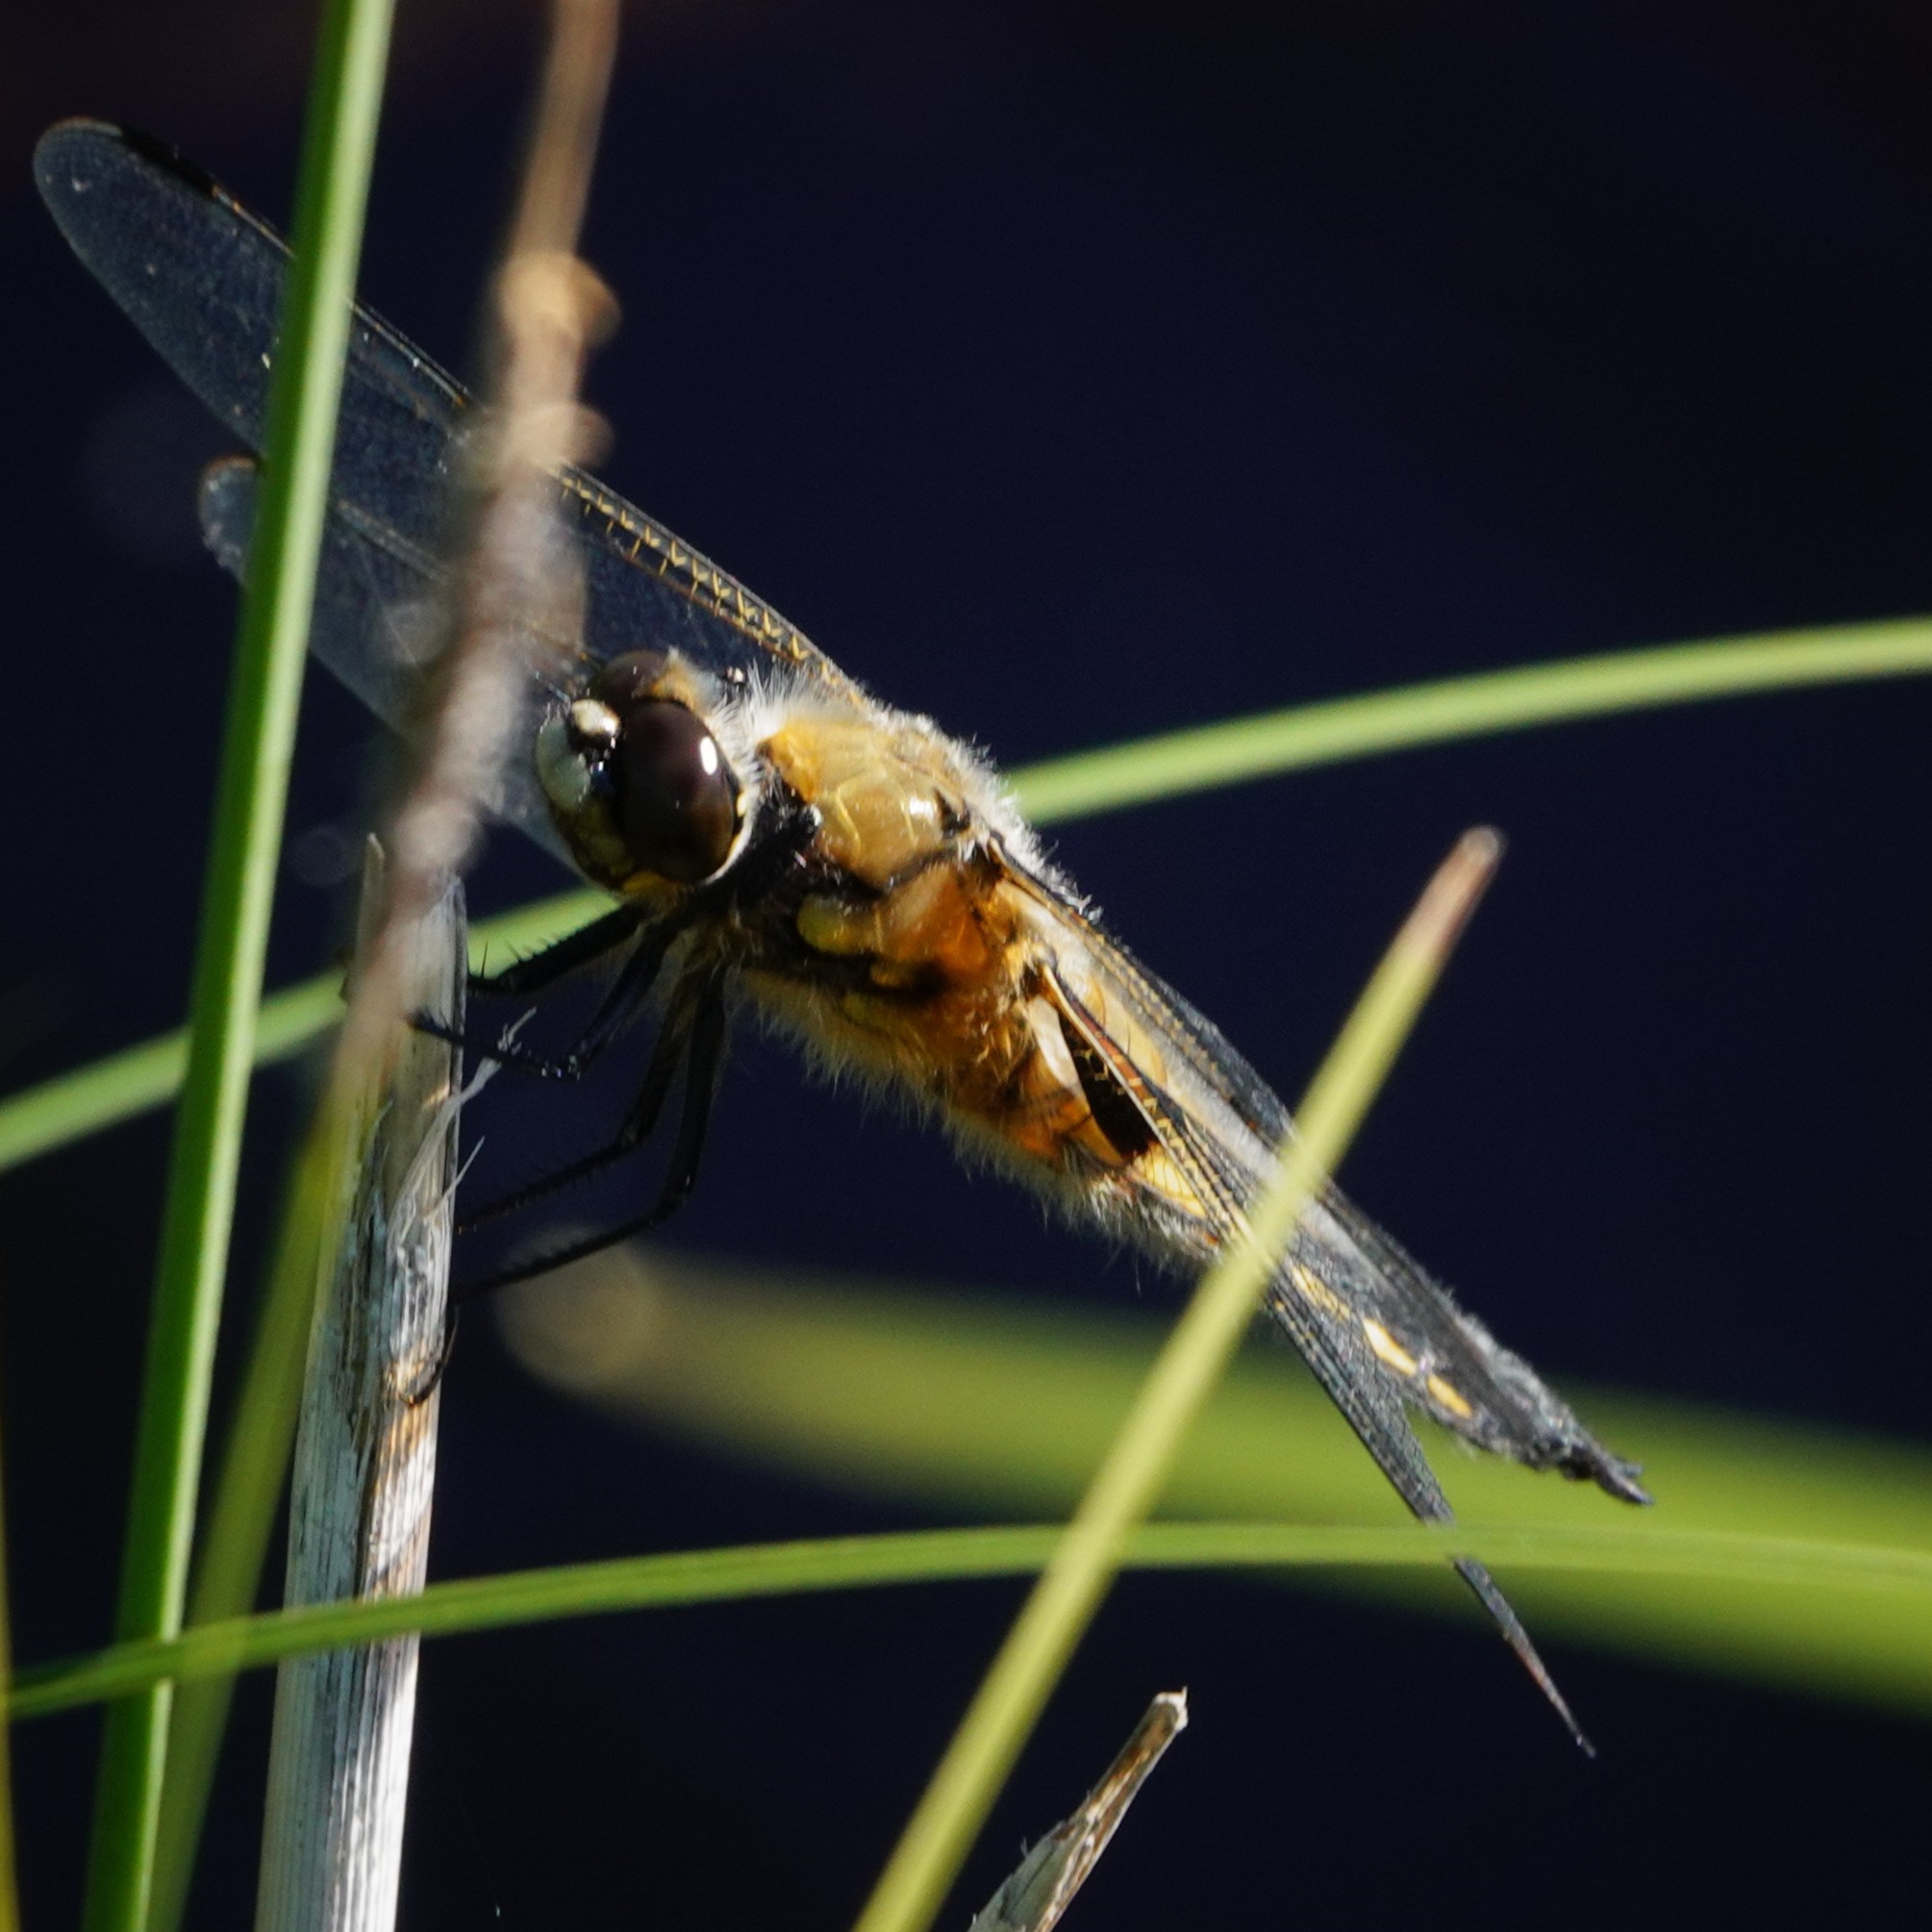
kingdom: Animalia
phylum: Arthropoda
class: Insecta
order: Odonata
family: Libellulidae
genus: Libellula
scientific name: Libellula quadrimaculata
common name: Four-spotted chaser
